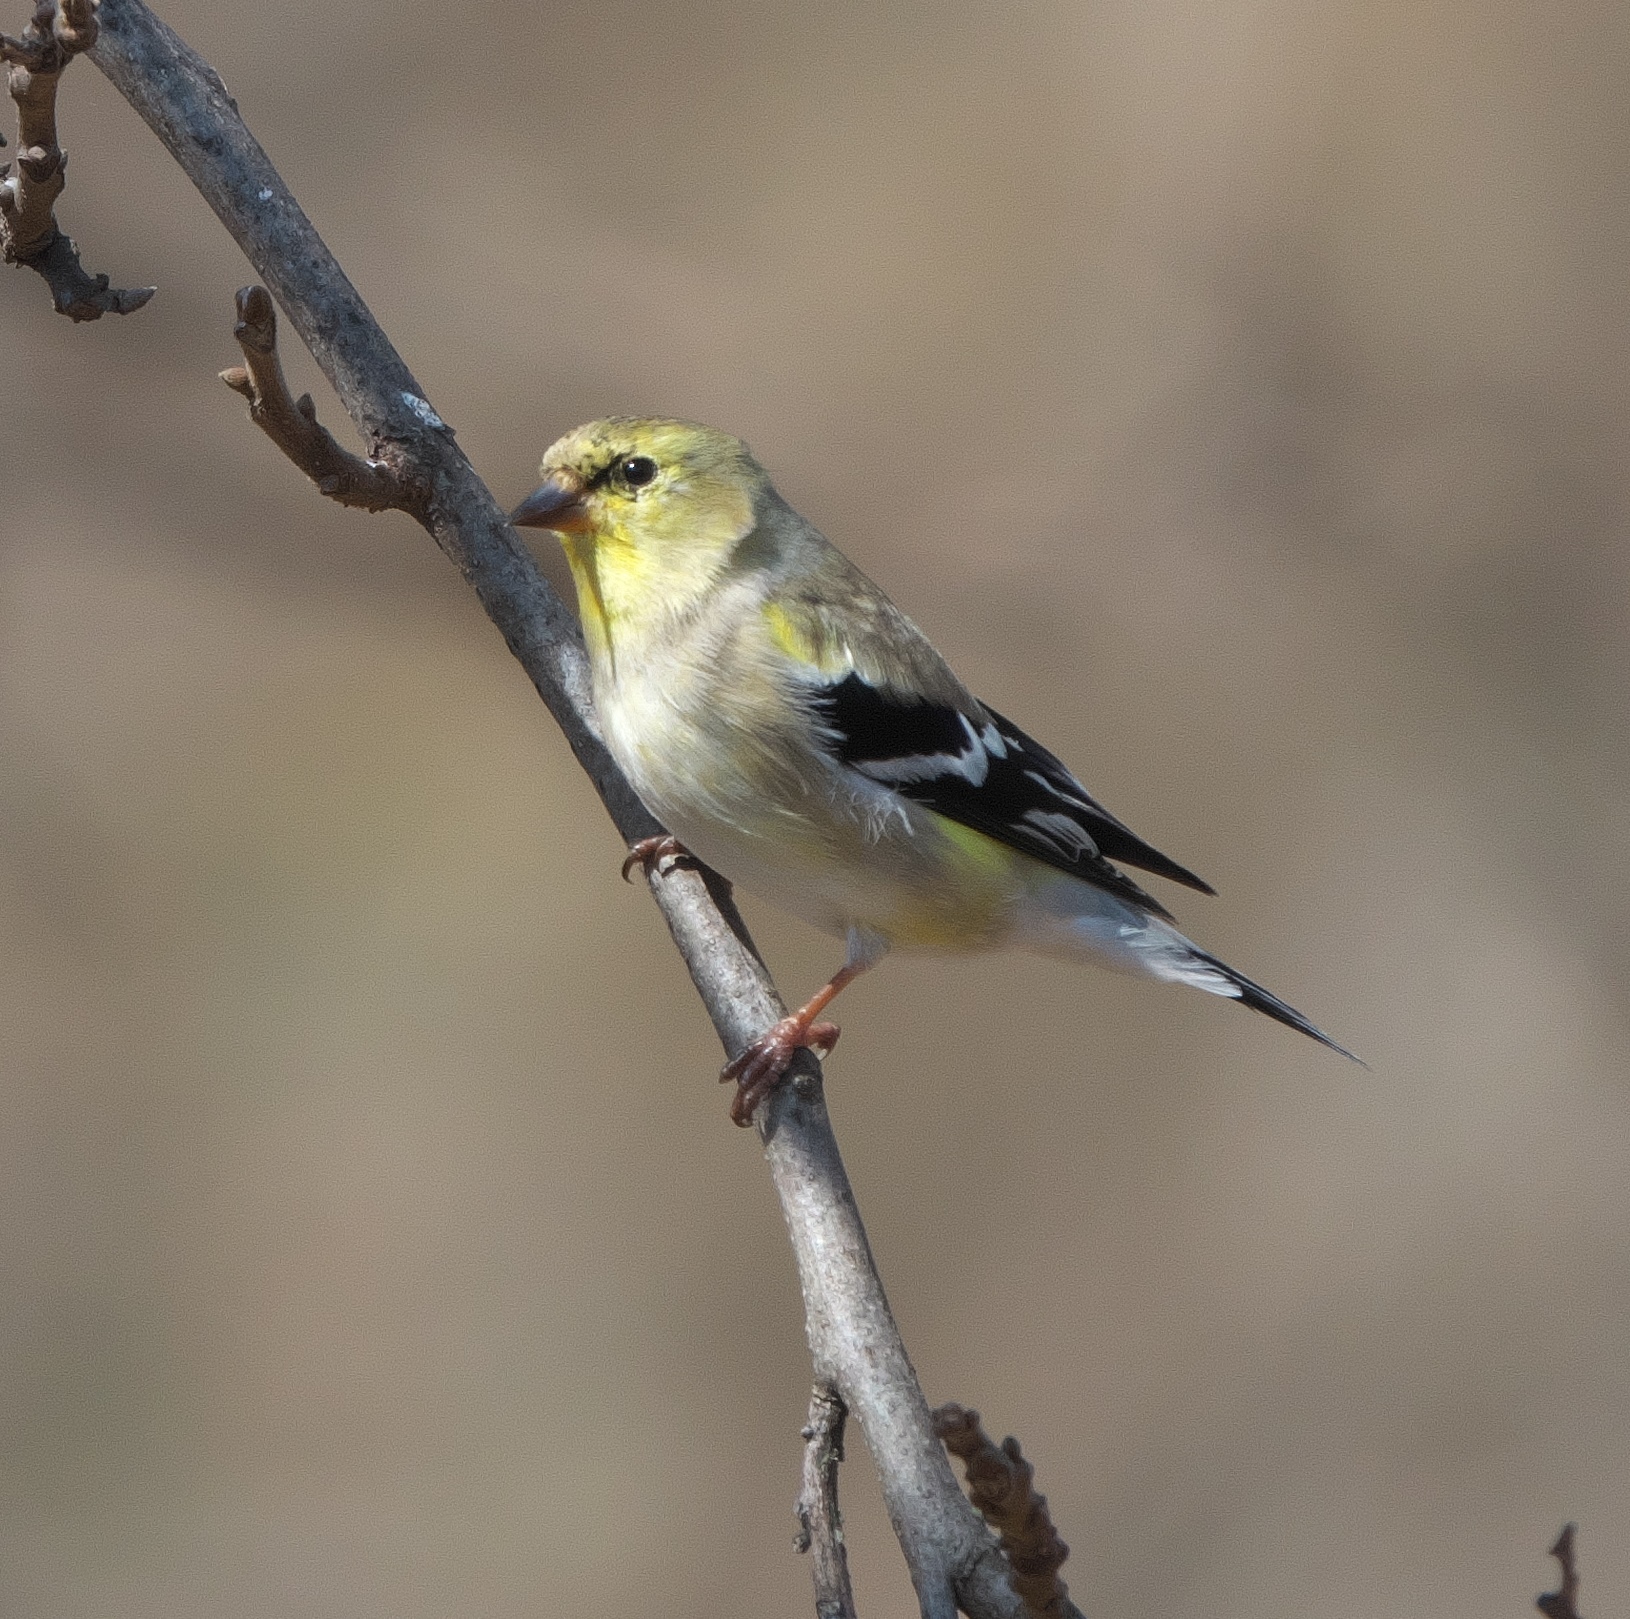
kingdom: Animalia
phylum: Chordata
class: Aves
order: Passeriformes
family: Fringillidae
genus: Spinus
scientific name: Spinus tristis
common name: American goldfinch
